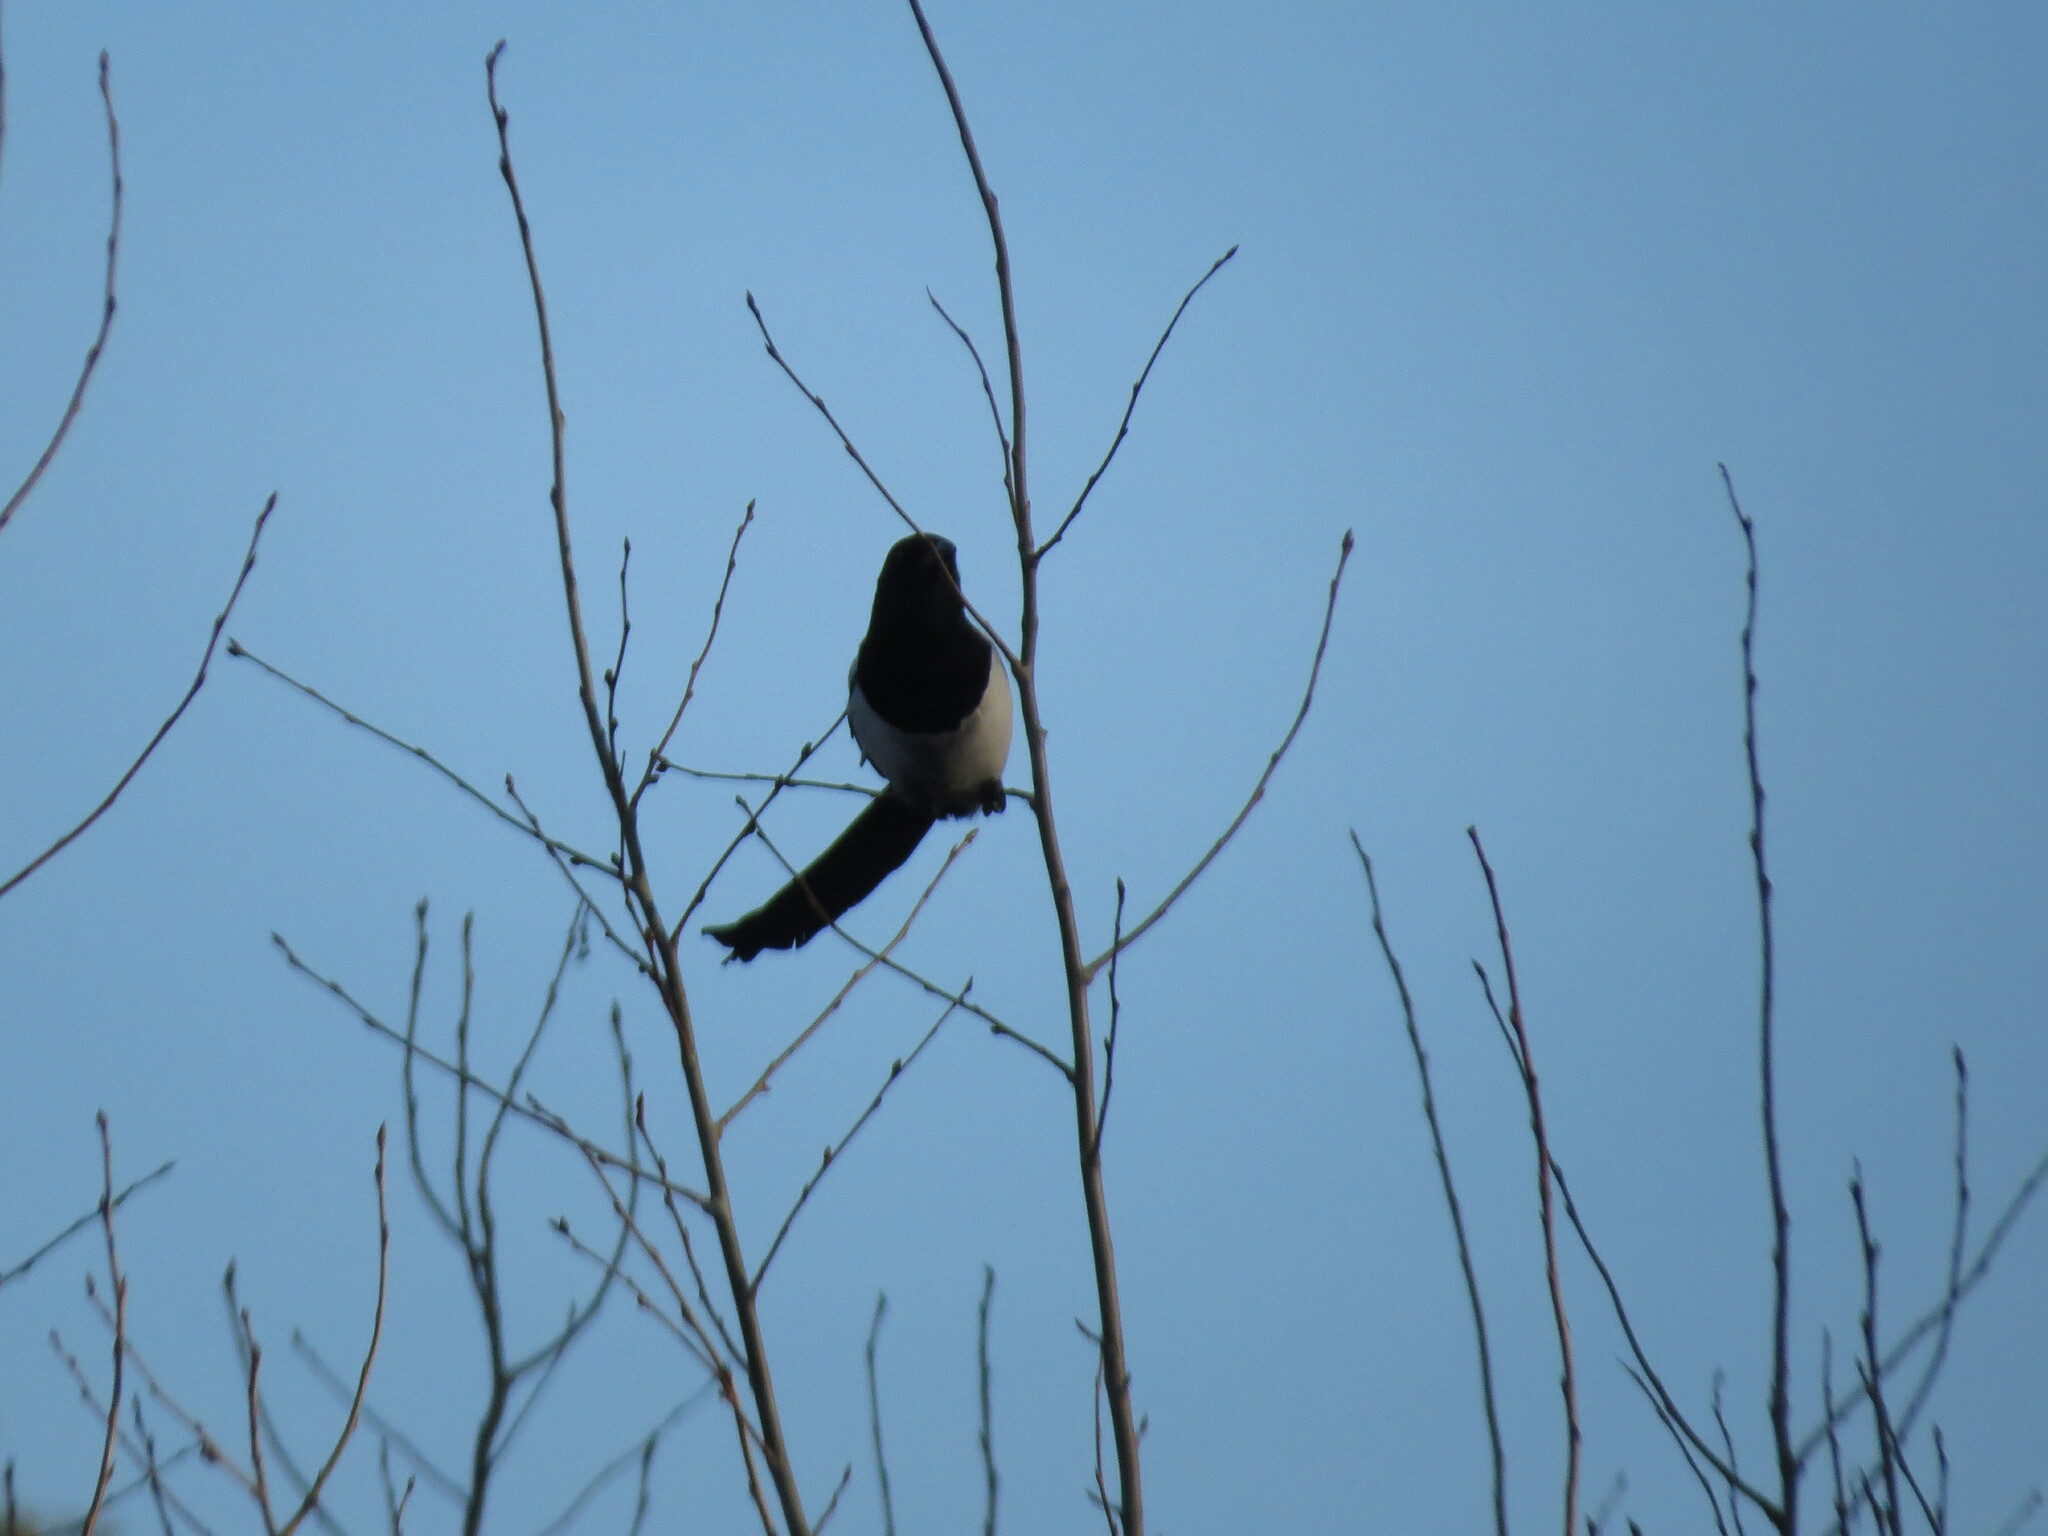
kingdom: Animalia
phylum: Chordata
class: Aves
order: Passeriformes
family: Corvidae
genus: Pica
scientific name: Pica pica
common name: Eurasian magpie
